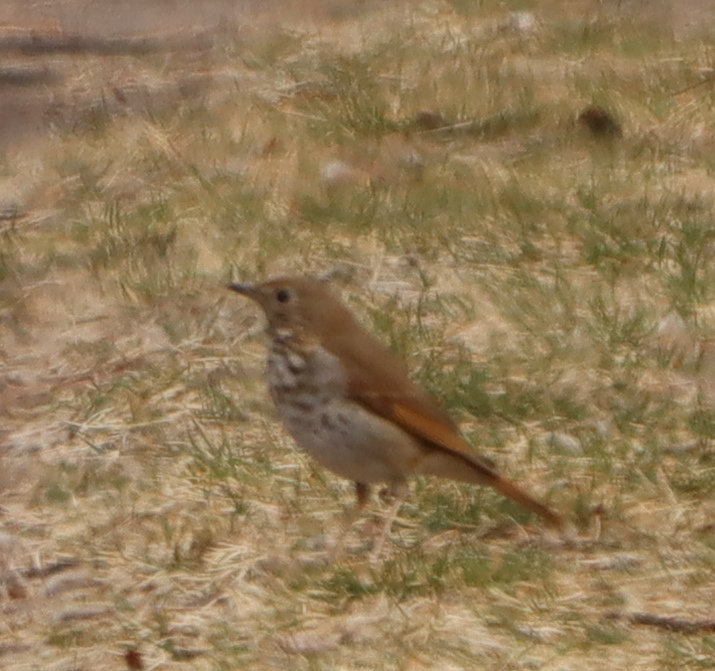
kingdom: Animalia
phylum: Chordata
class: Aves
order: Passeriformes
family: Turdidae
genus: Catharus
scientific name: Catharus guttatus
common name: Hermit thrush
